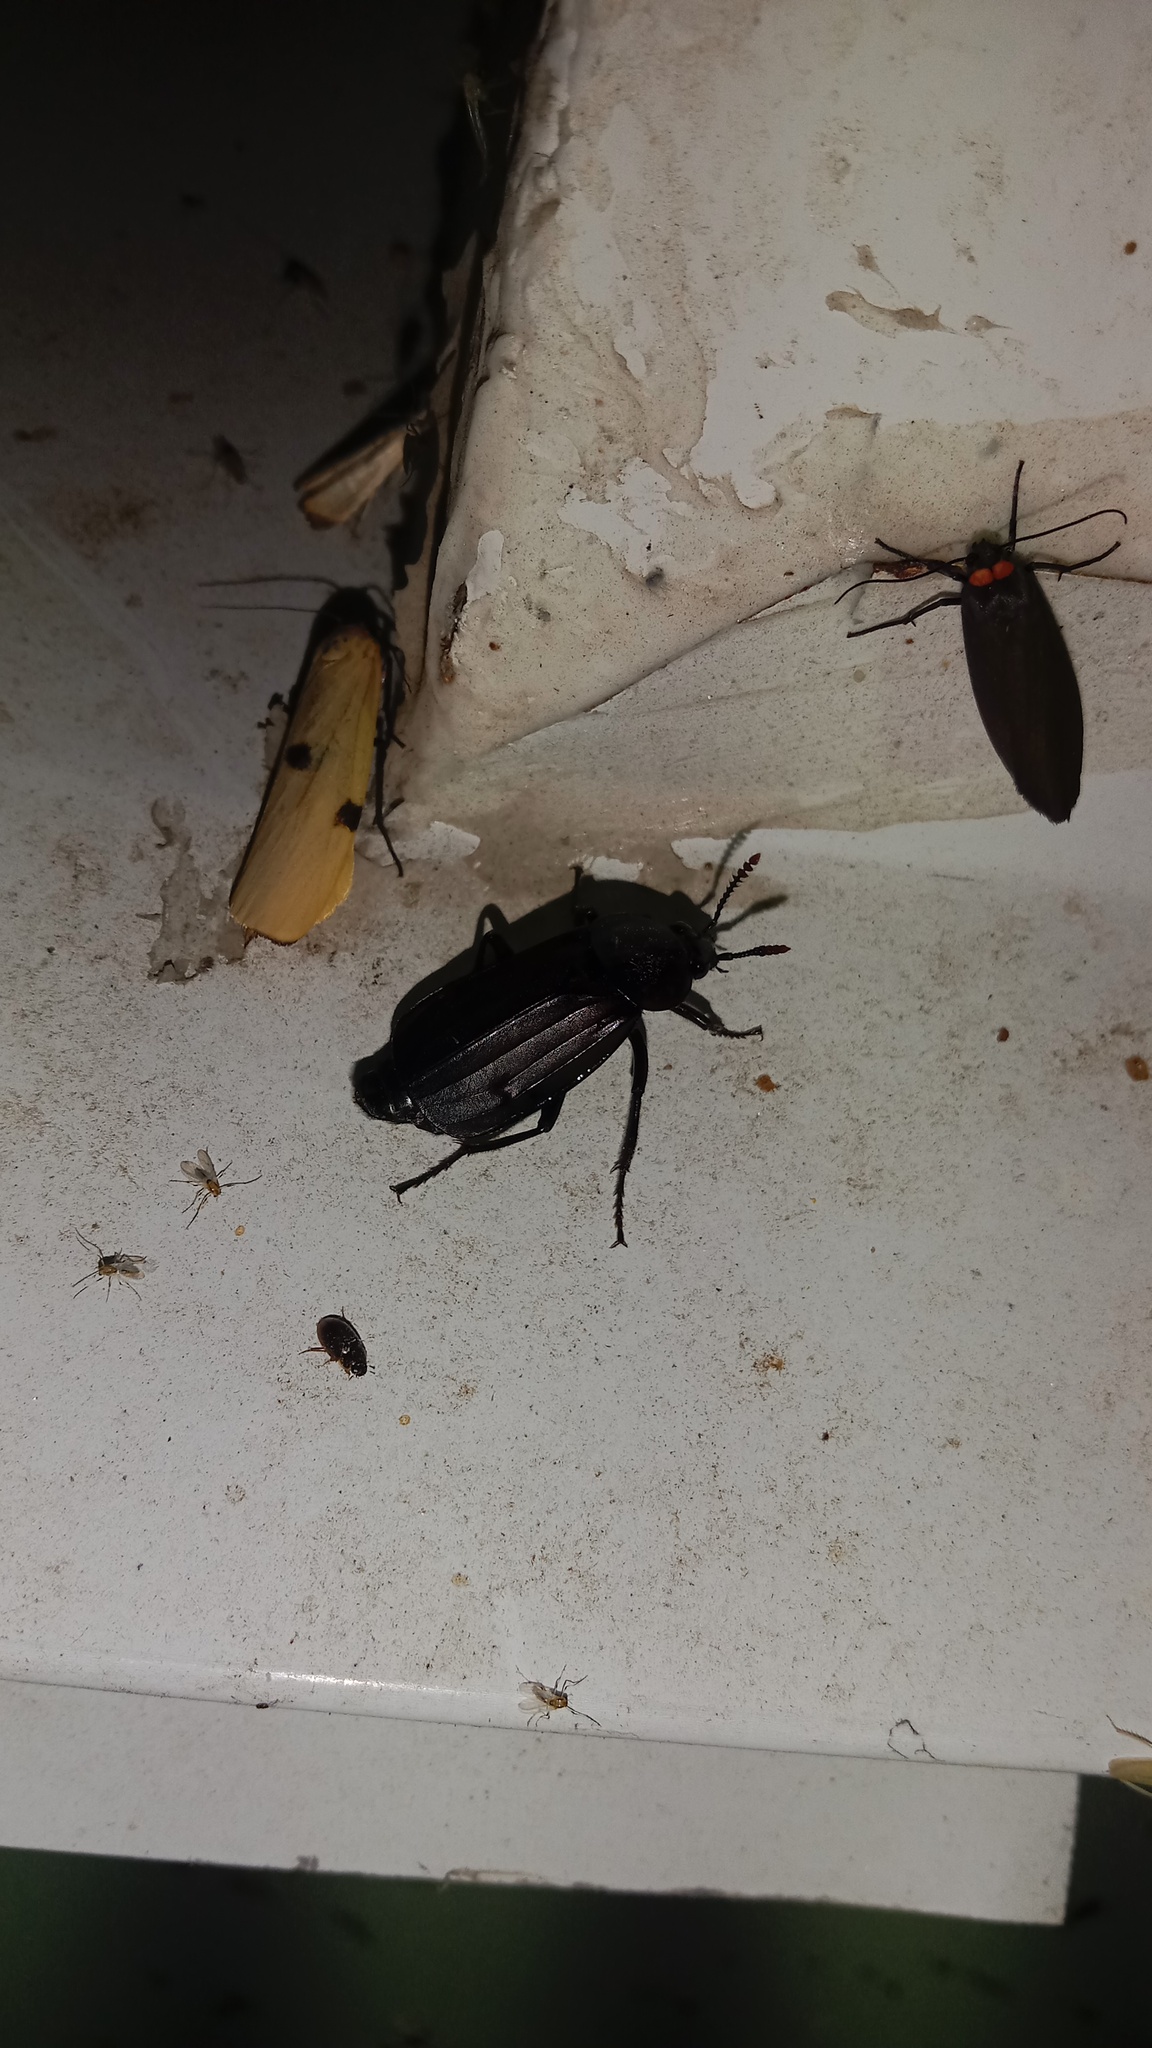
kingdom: Animalia
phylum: Arthropoda
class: Insecta
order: Coleoptera
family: Staphylinidae
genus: Necrodes
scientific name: Necrodes littoralis
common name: Shore sexton beetle
